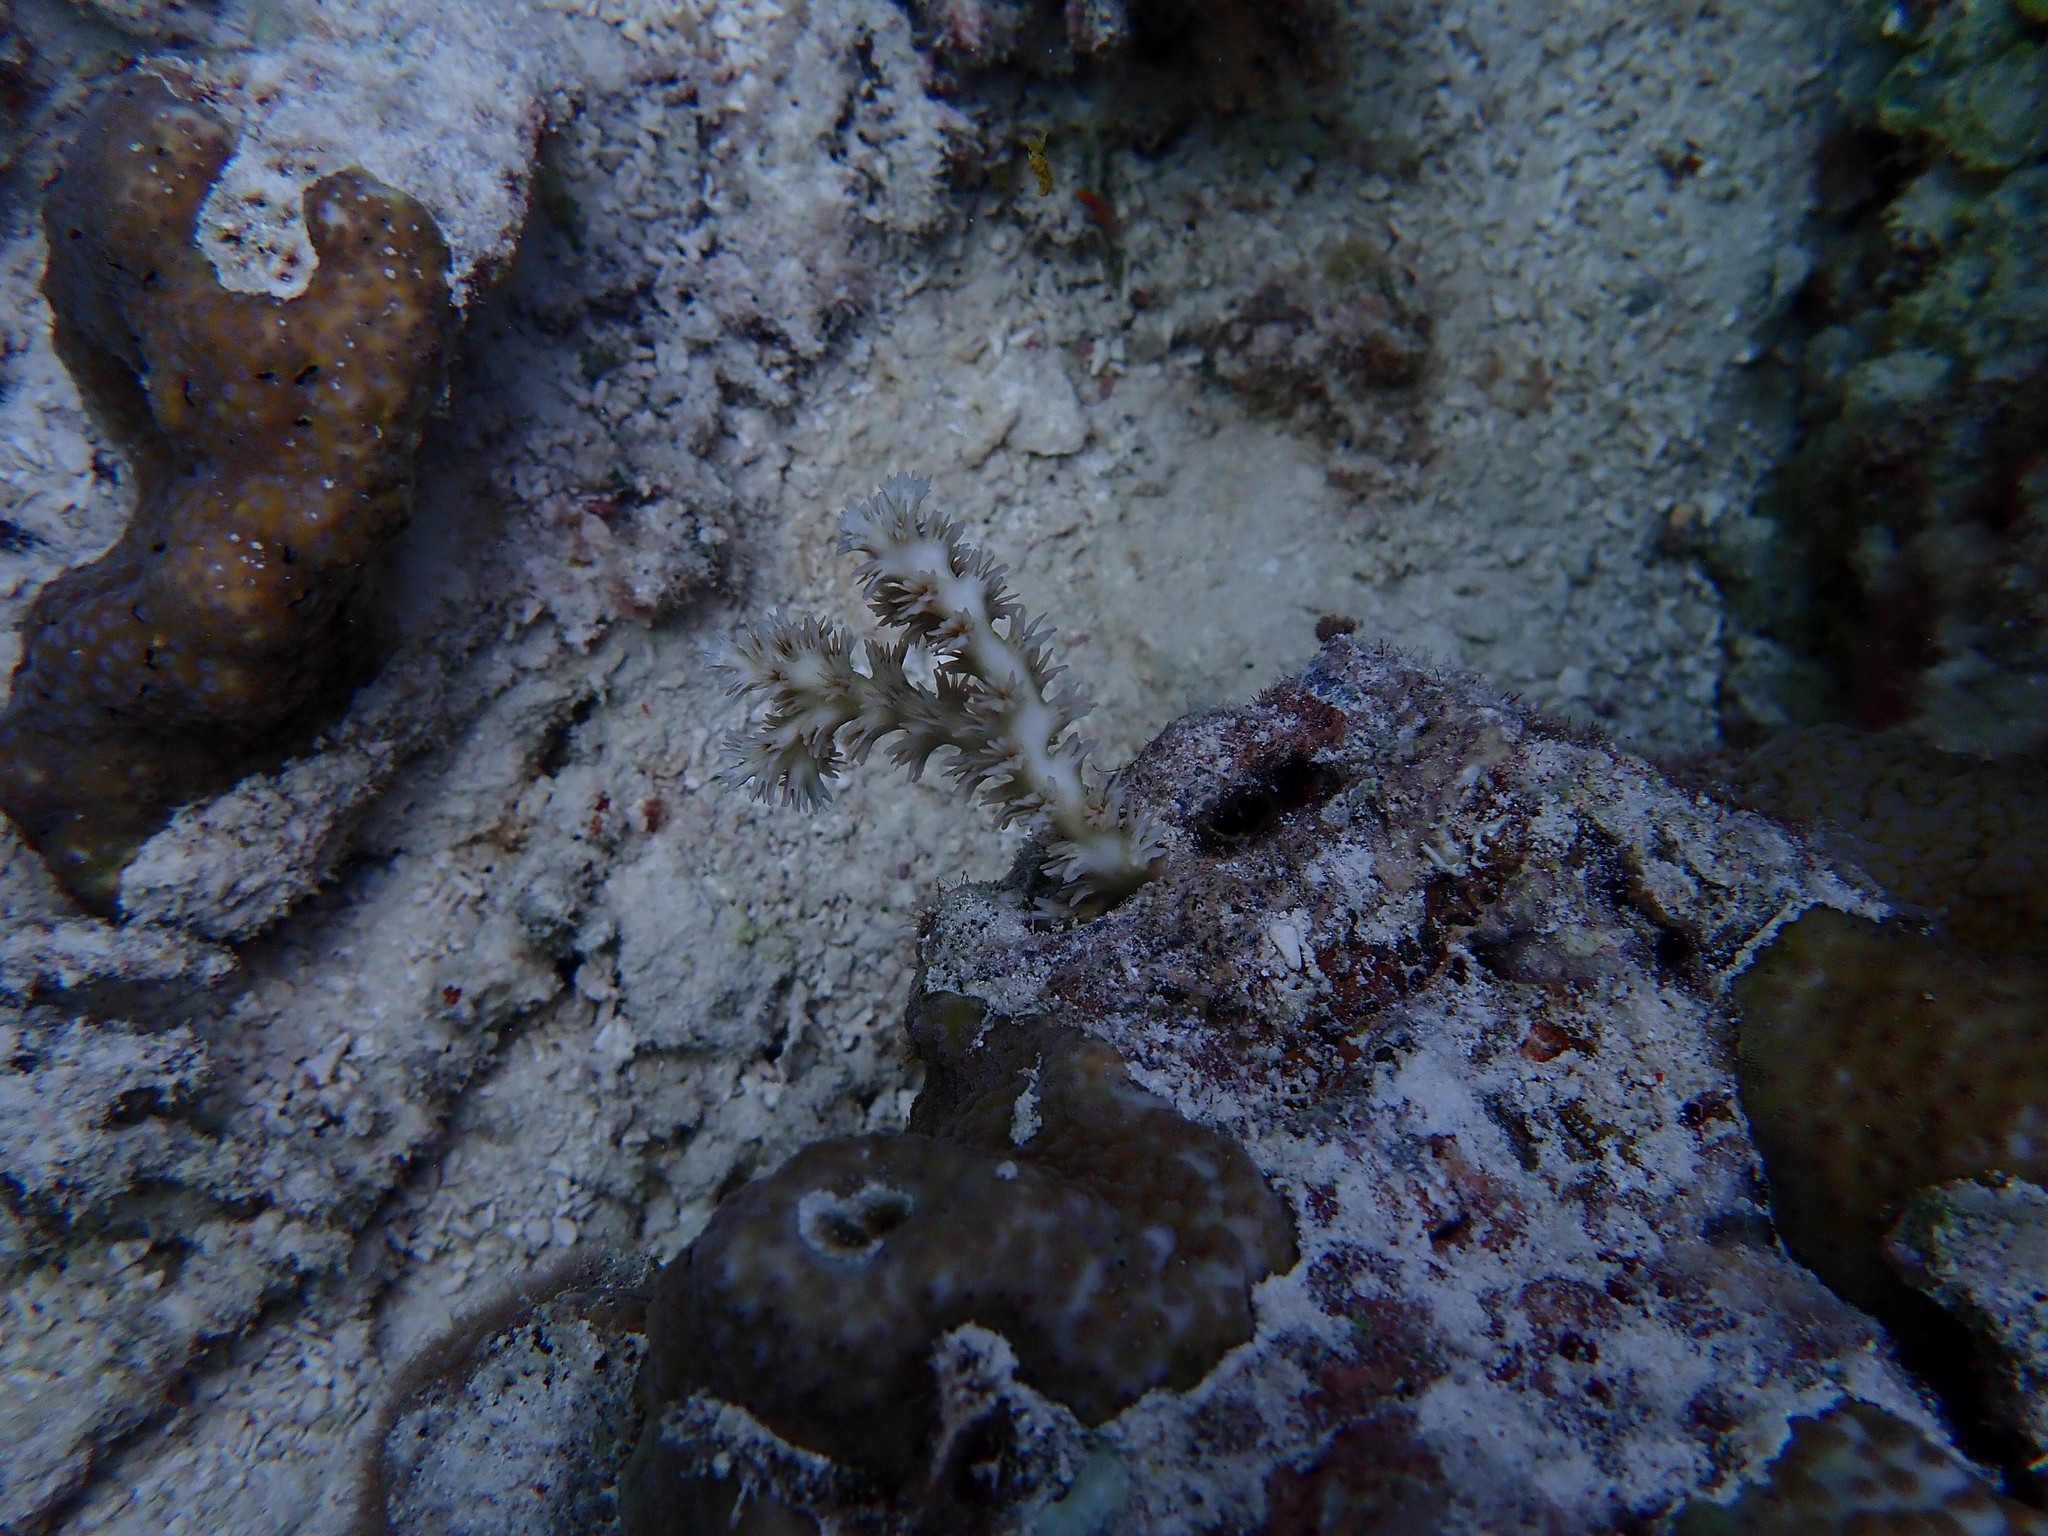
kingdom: Animalia
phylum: Cnidaria
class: Anthozoa
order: Scleractinia
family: Euphylliidae
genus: Galaxea
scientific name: Galaxea horrescens
